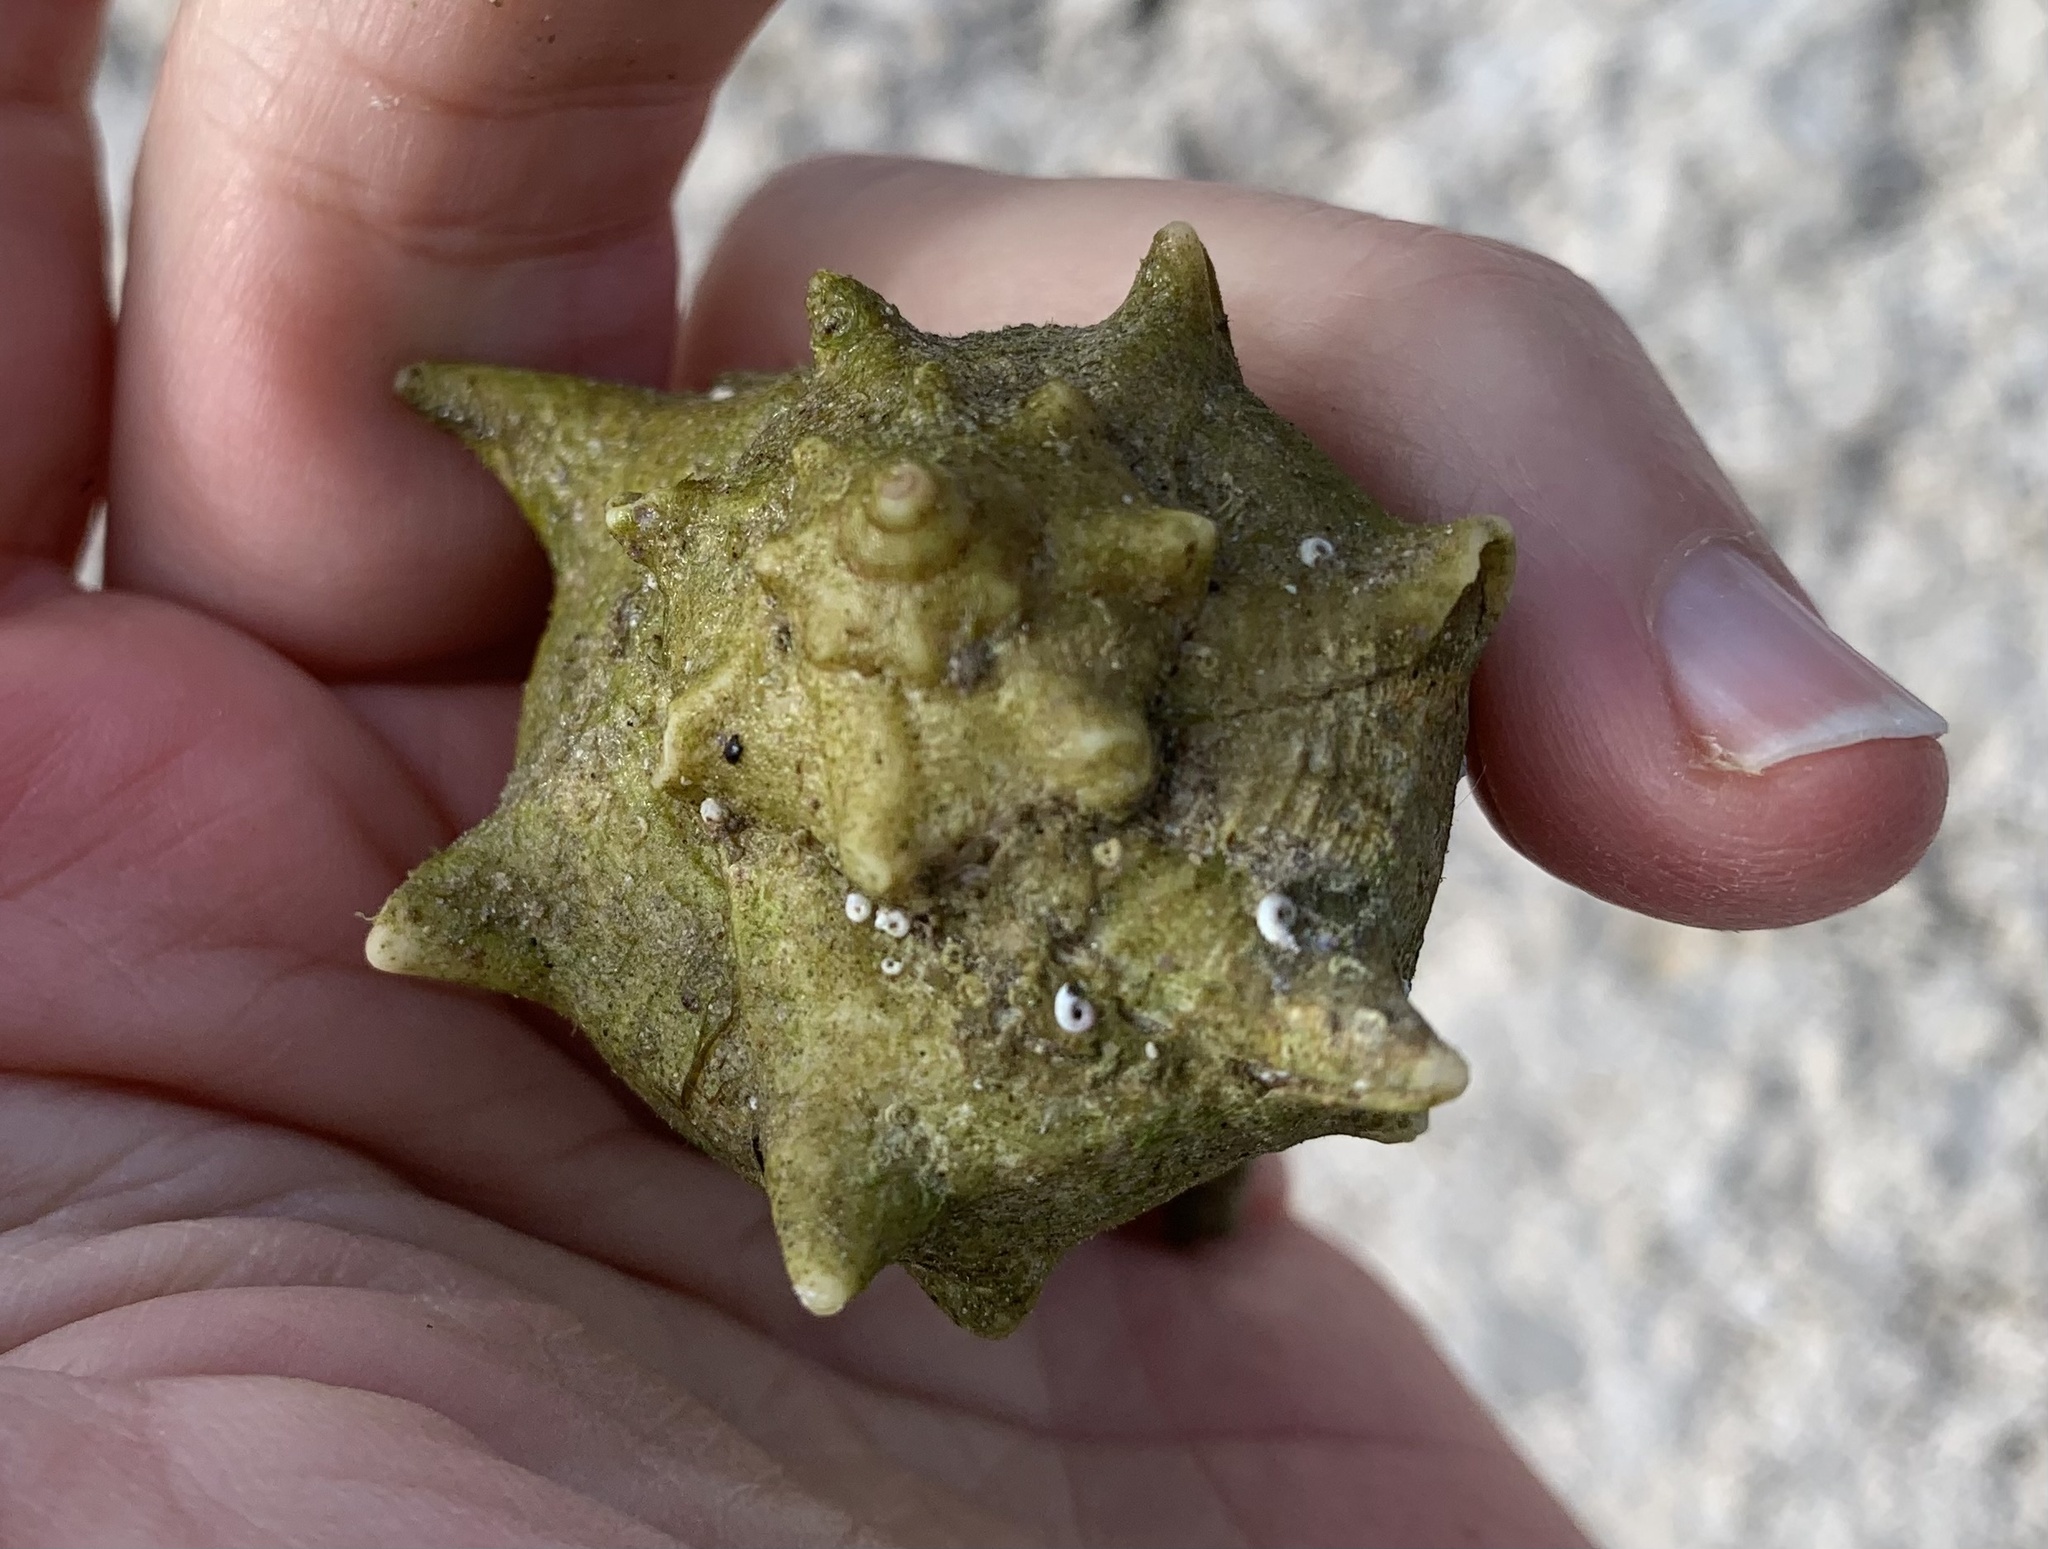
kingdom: Animalia
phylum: Mollusca
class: Gastropoda
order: Neogastropoda
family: Muricidae
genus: Bolinus
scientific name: Bolinus brandaris
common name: Dye murex
